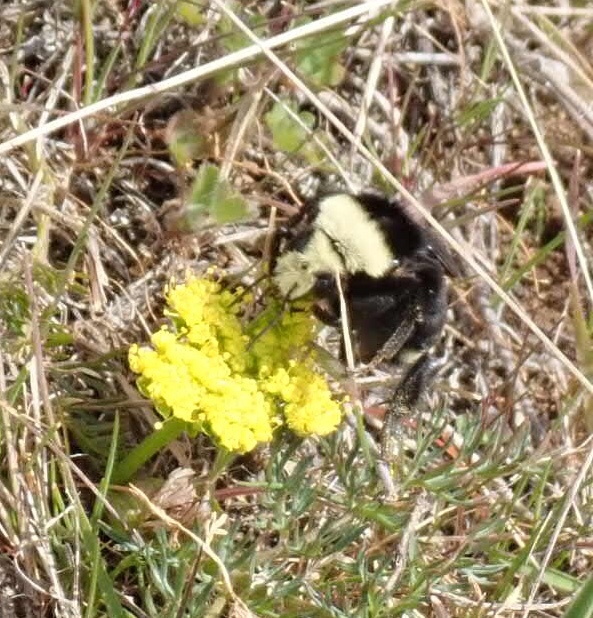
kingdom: Animalia
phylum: Arthropoda
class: Insecta
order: Hymenoptera
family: Apidae
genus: Pyrobombus
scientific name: Pyrobombus
